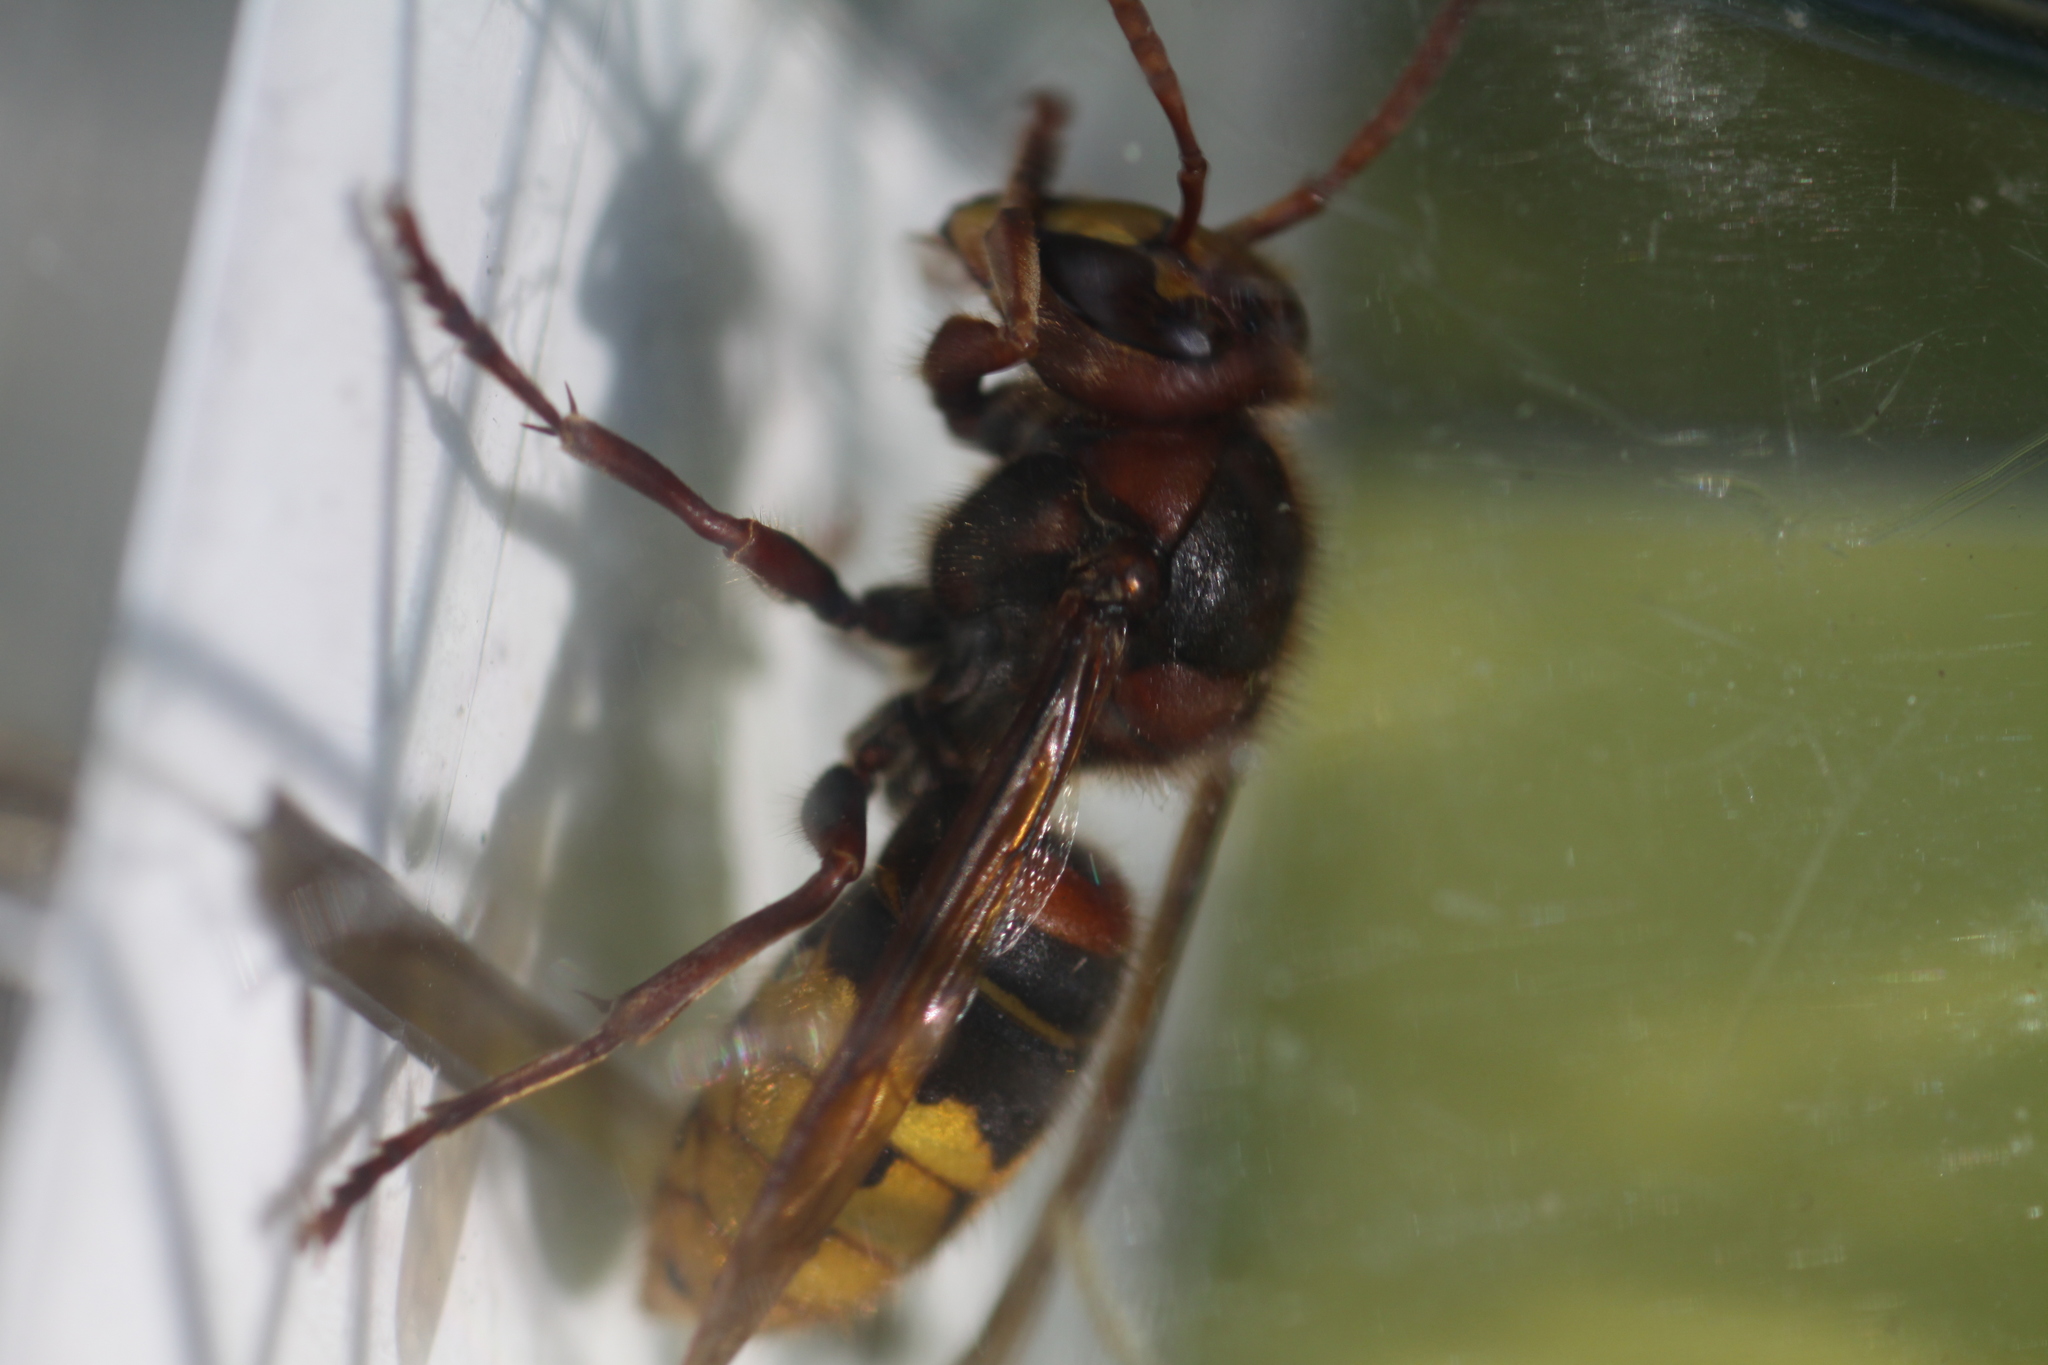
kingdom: Animalia
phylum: Arthropoda
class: Insecta
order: Hymenoptera
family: Vespidae
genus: Vespa
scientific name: Vespa crabro
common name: Hornet
